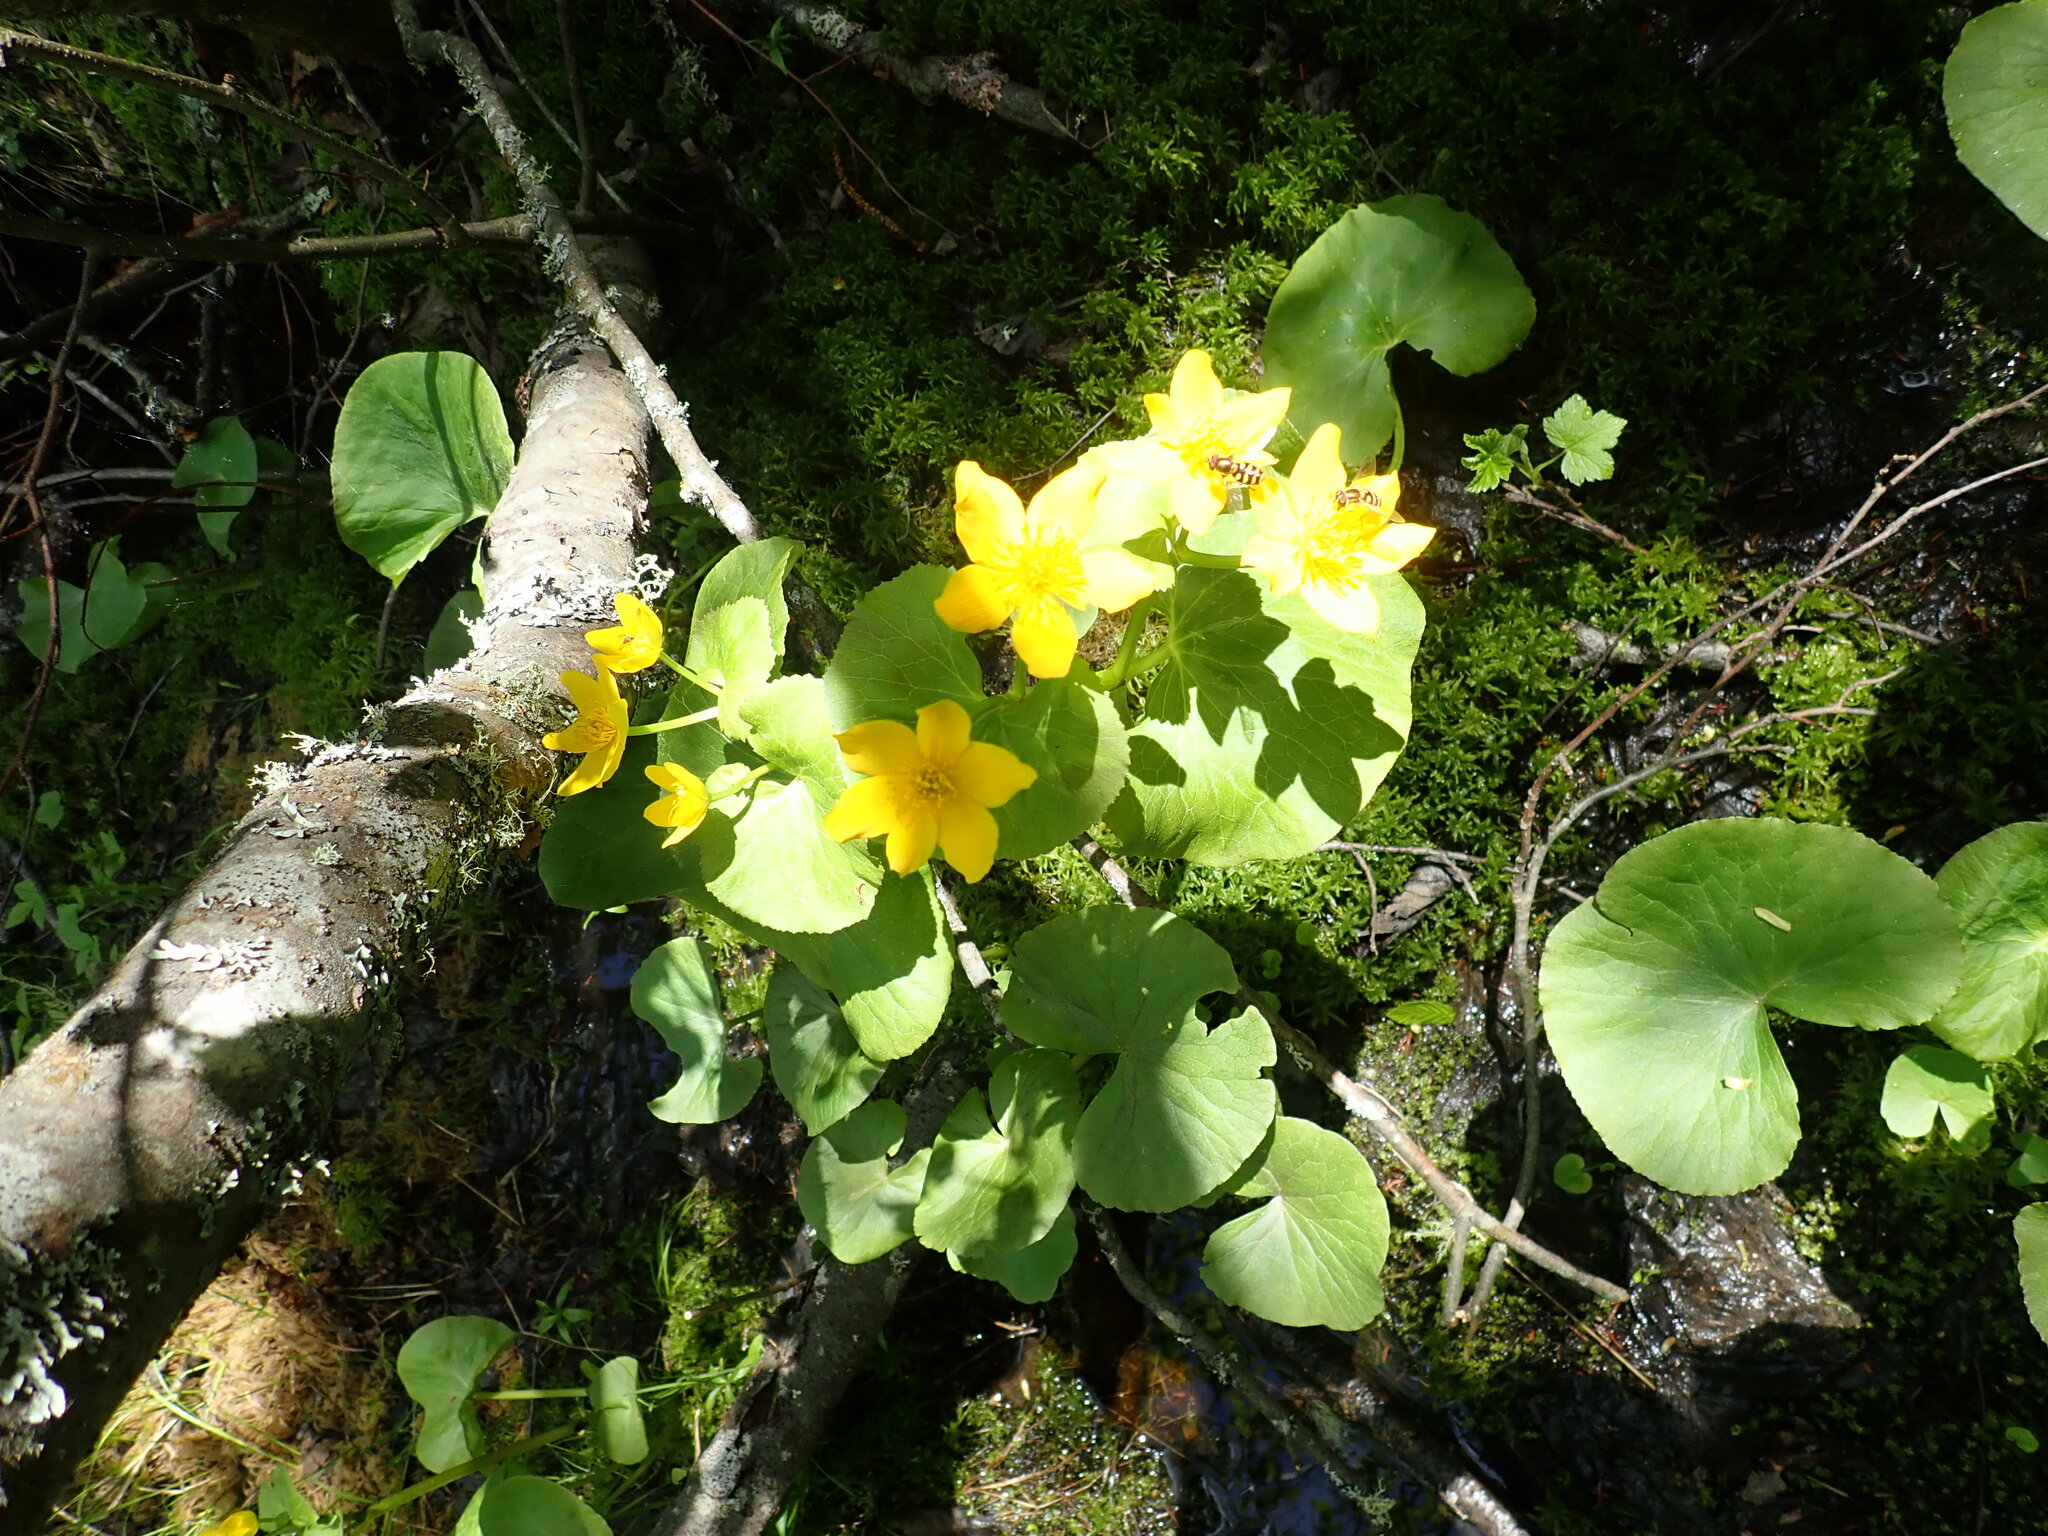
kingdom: Plantae
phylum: Tracheophyta
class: Magnoliopsida
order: Ranunculales
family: Ranunculaceae
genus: Caltha
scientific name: Caltha palustris
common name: Marsh marigold
